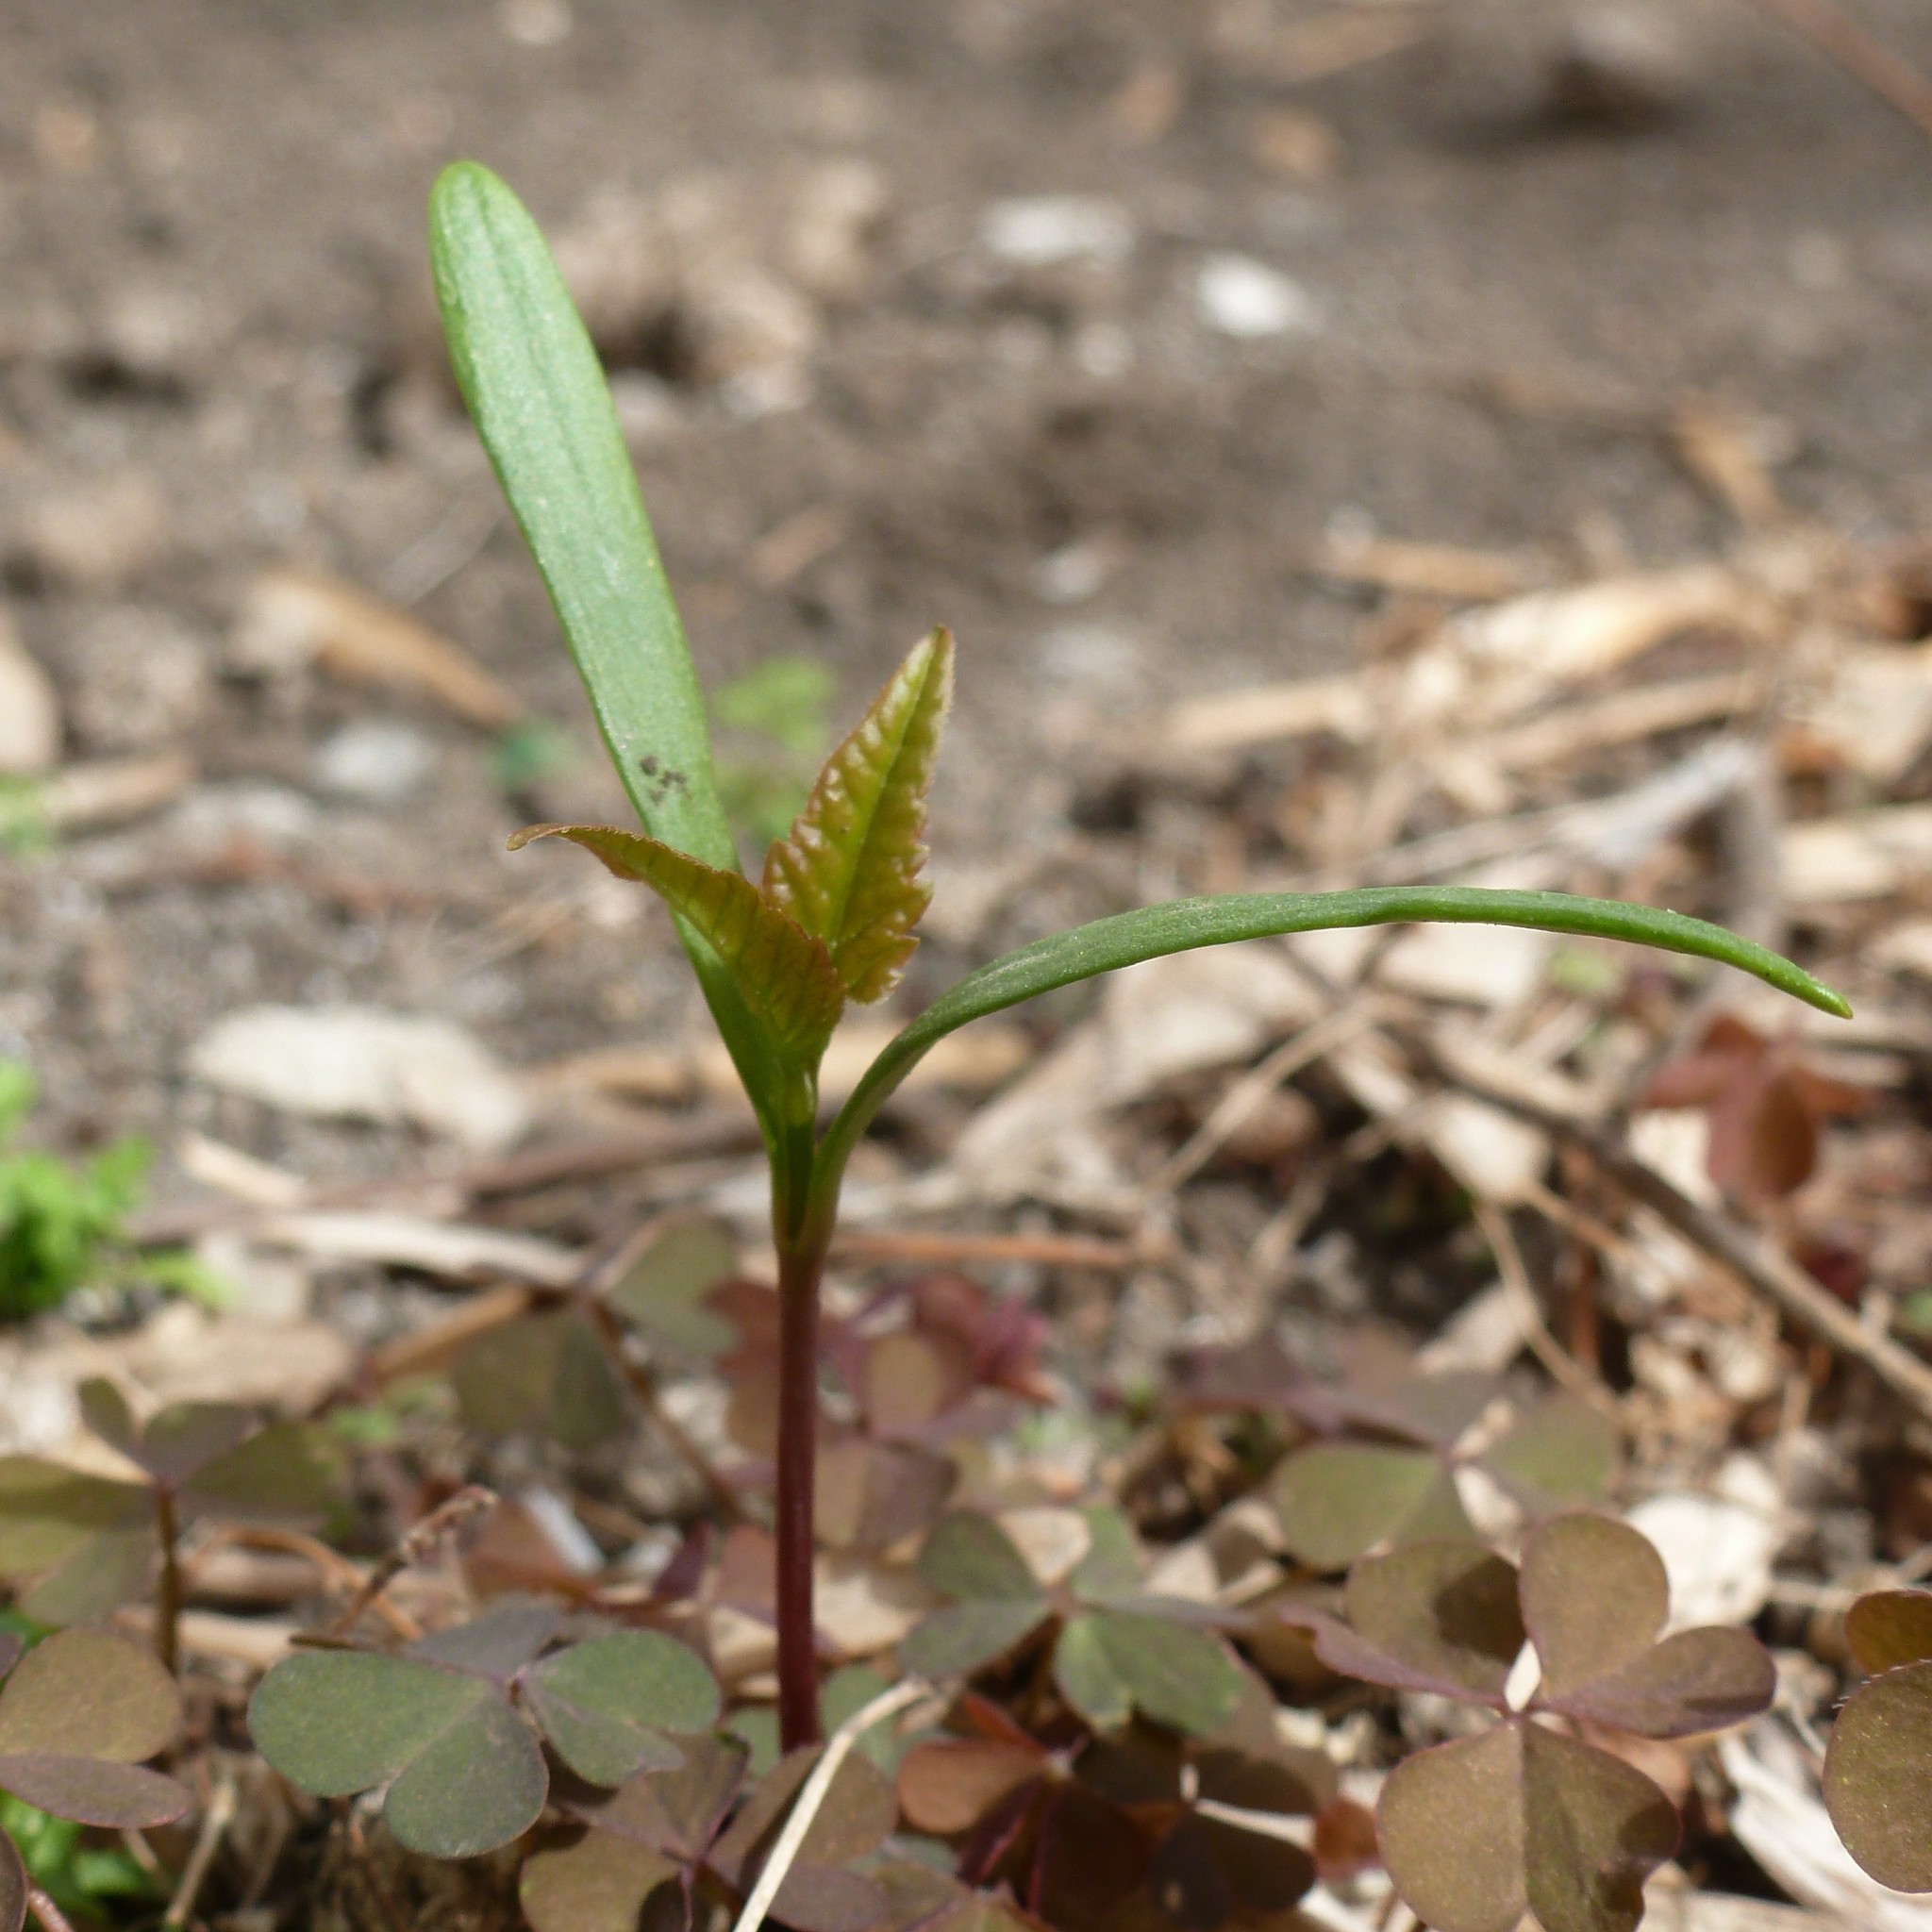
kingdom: Plantae
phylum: Tracheophyta
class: Magnoliopsida
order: Sapindales
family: Sapindaceae
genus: Acer
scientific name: Acer negundo
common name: Ashleaf maple
